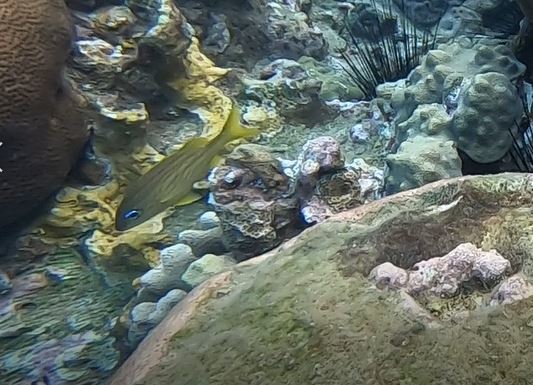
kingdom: Animalia
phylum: Chordata
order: Perciformes
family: Haemulidae
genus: Haemulon
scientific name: Haemulon flavolineatum
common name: French grunt
